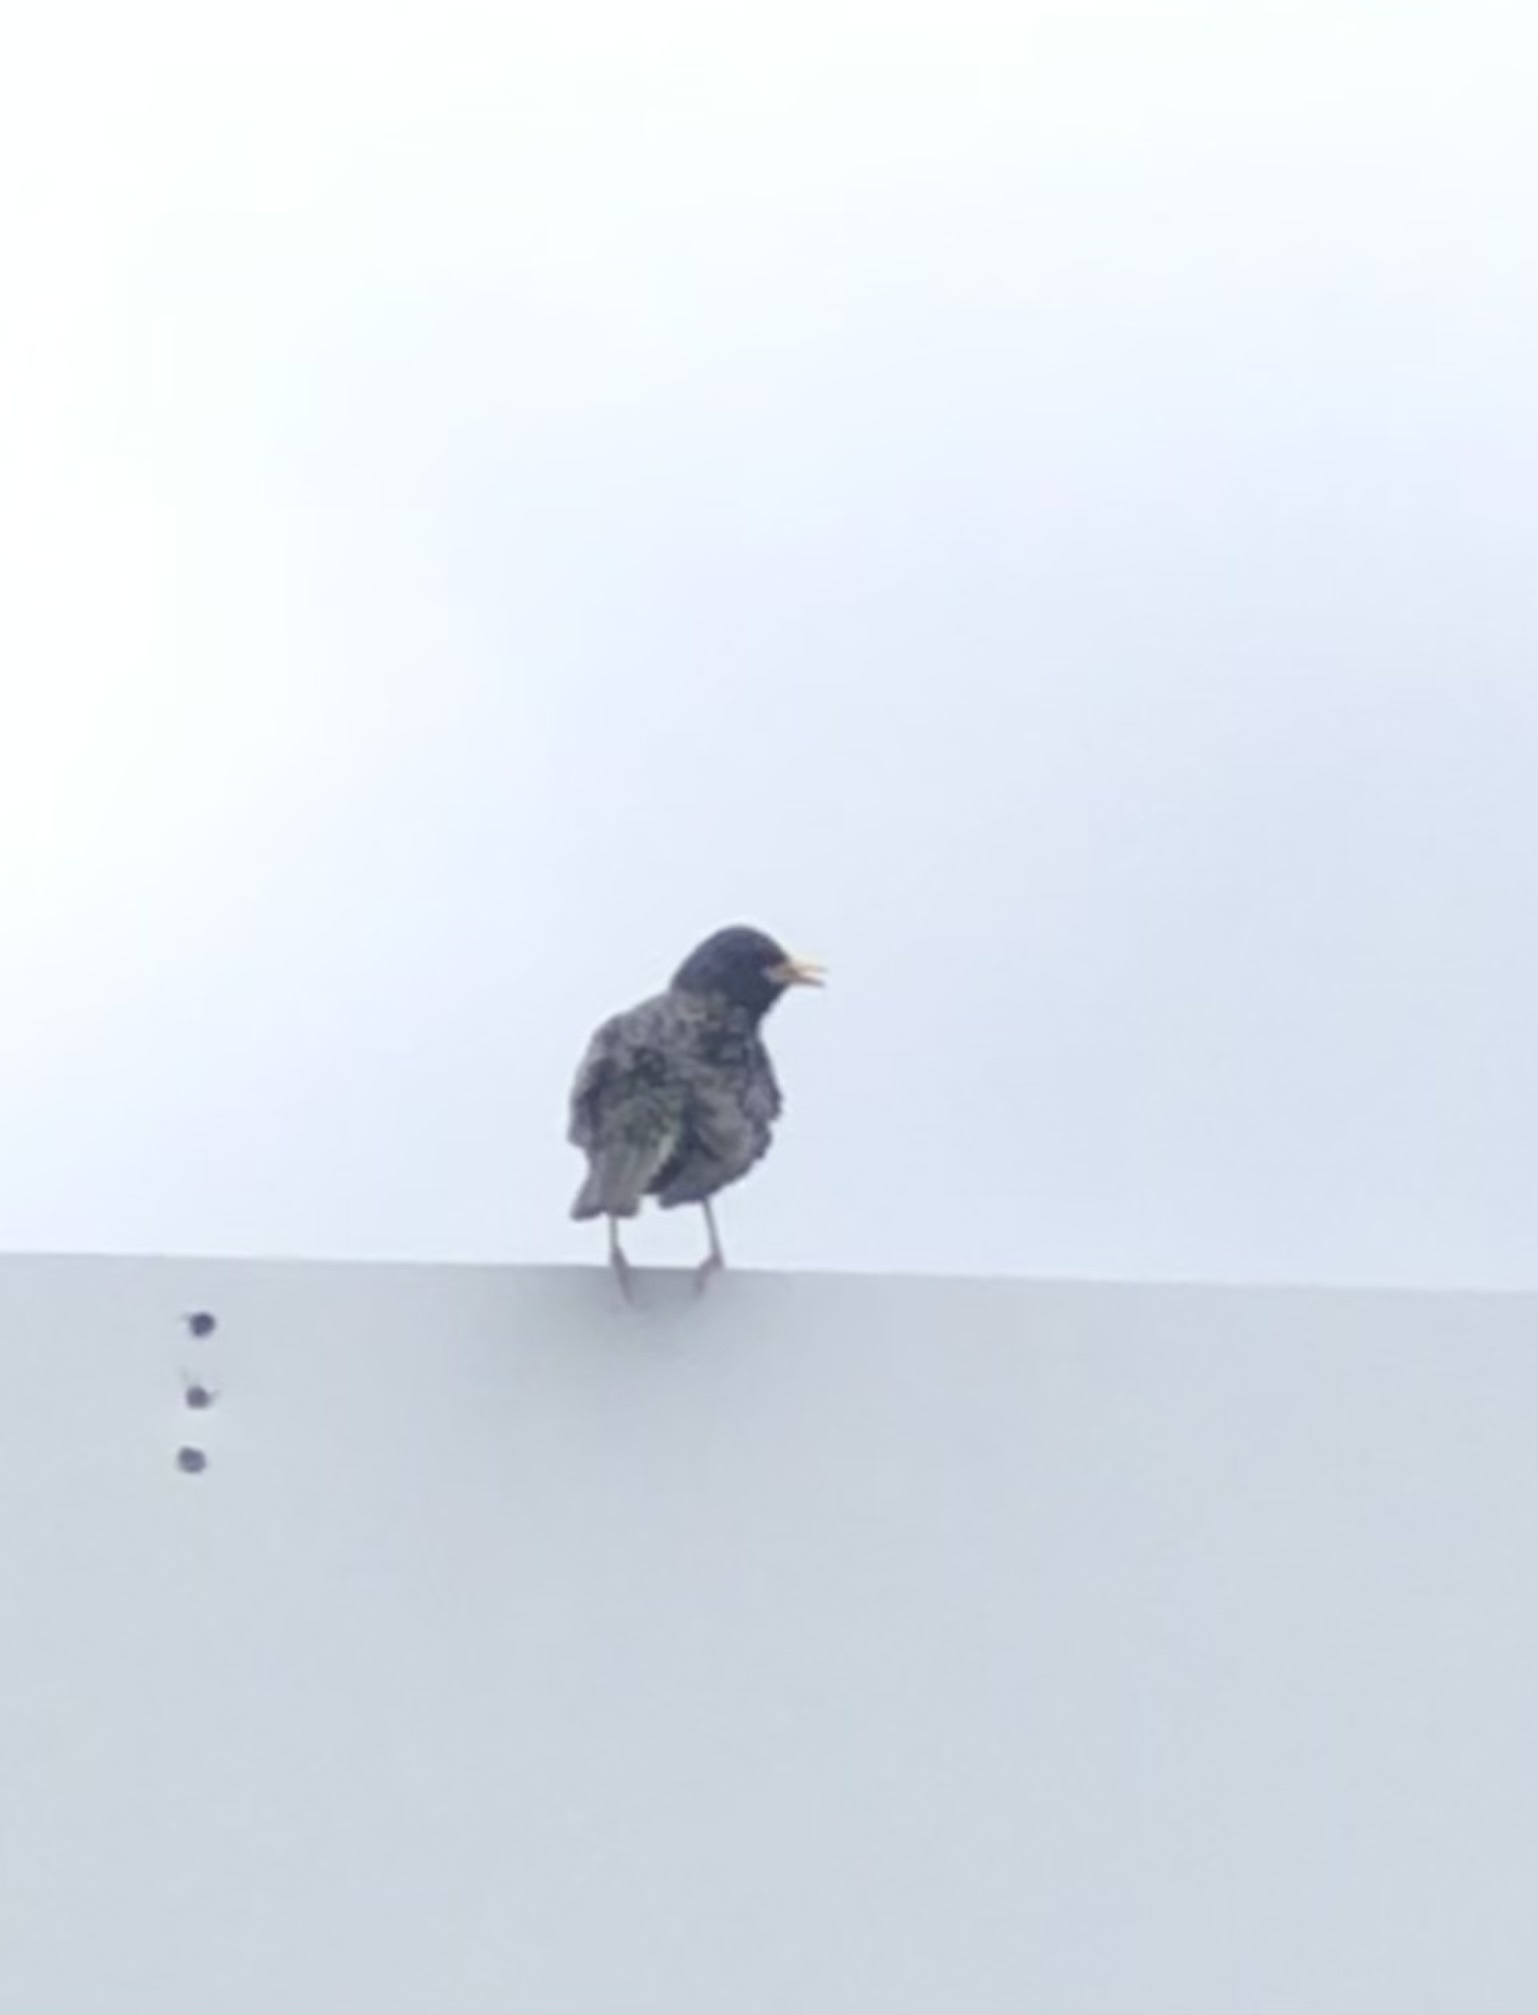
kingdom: Animalia
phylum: Chordata
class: Aves
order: Passeriformes
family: Sturnidae
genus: Sturnus
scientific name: Sturnus vulgaris
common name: Common starling
